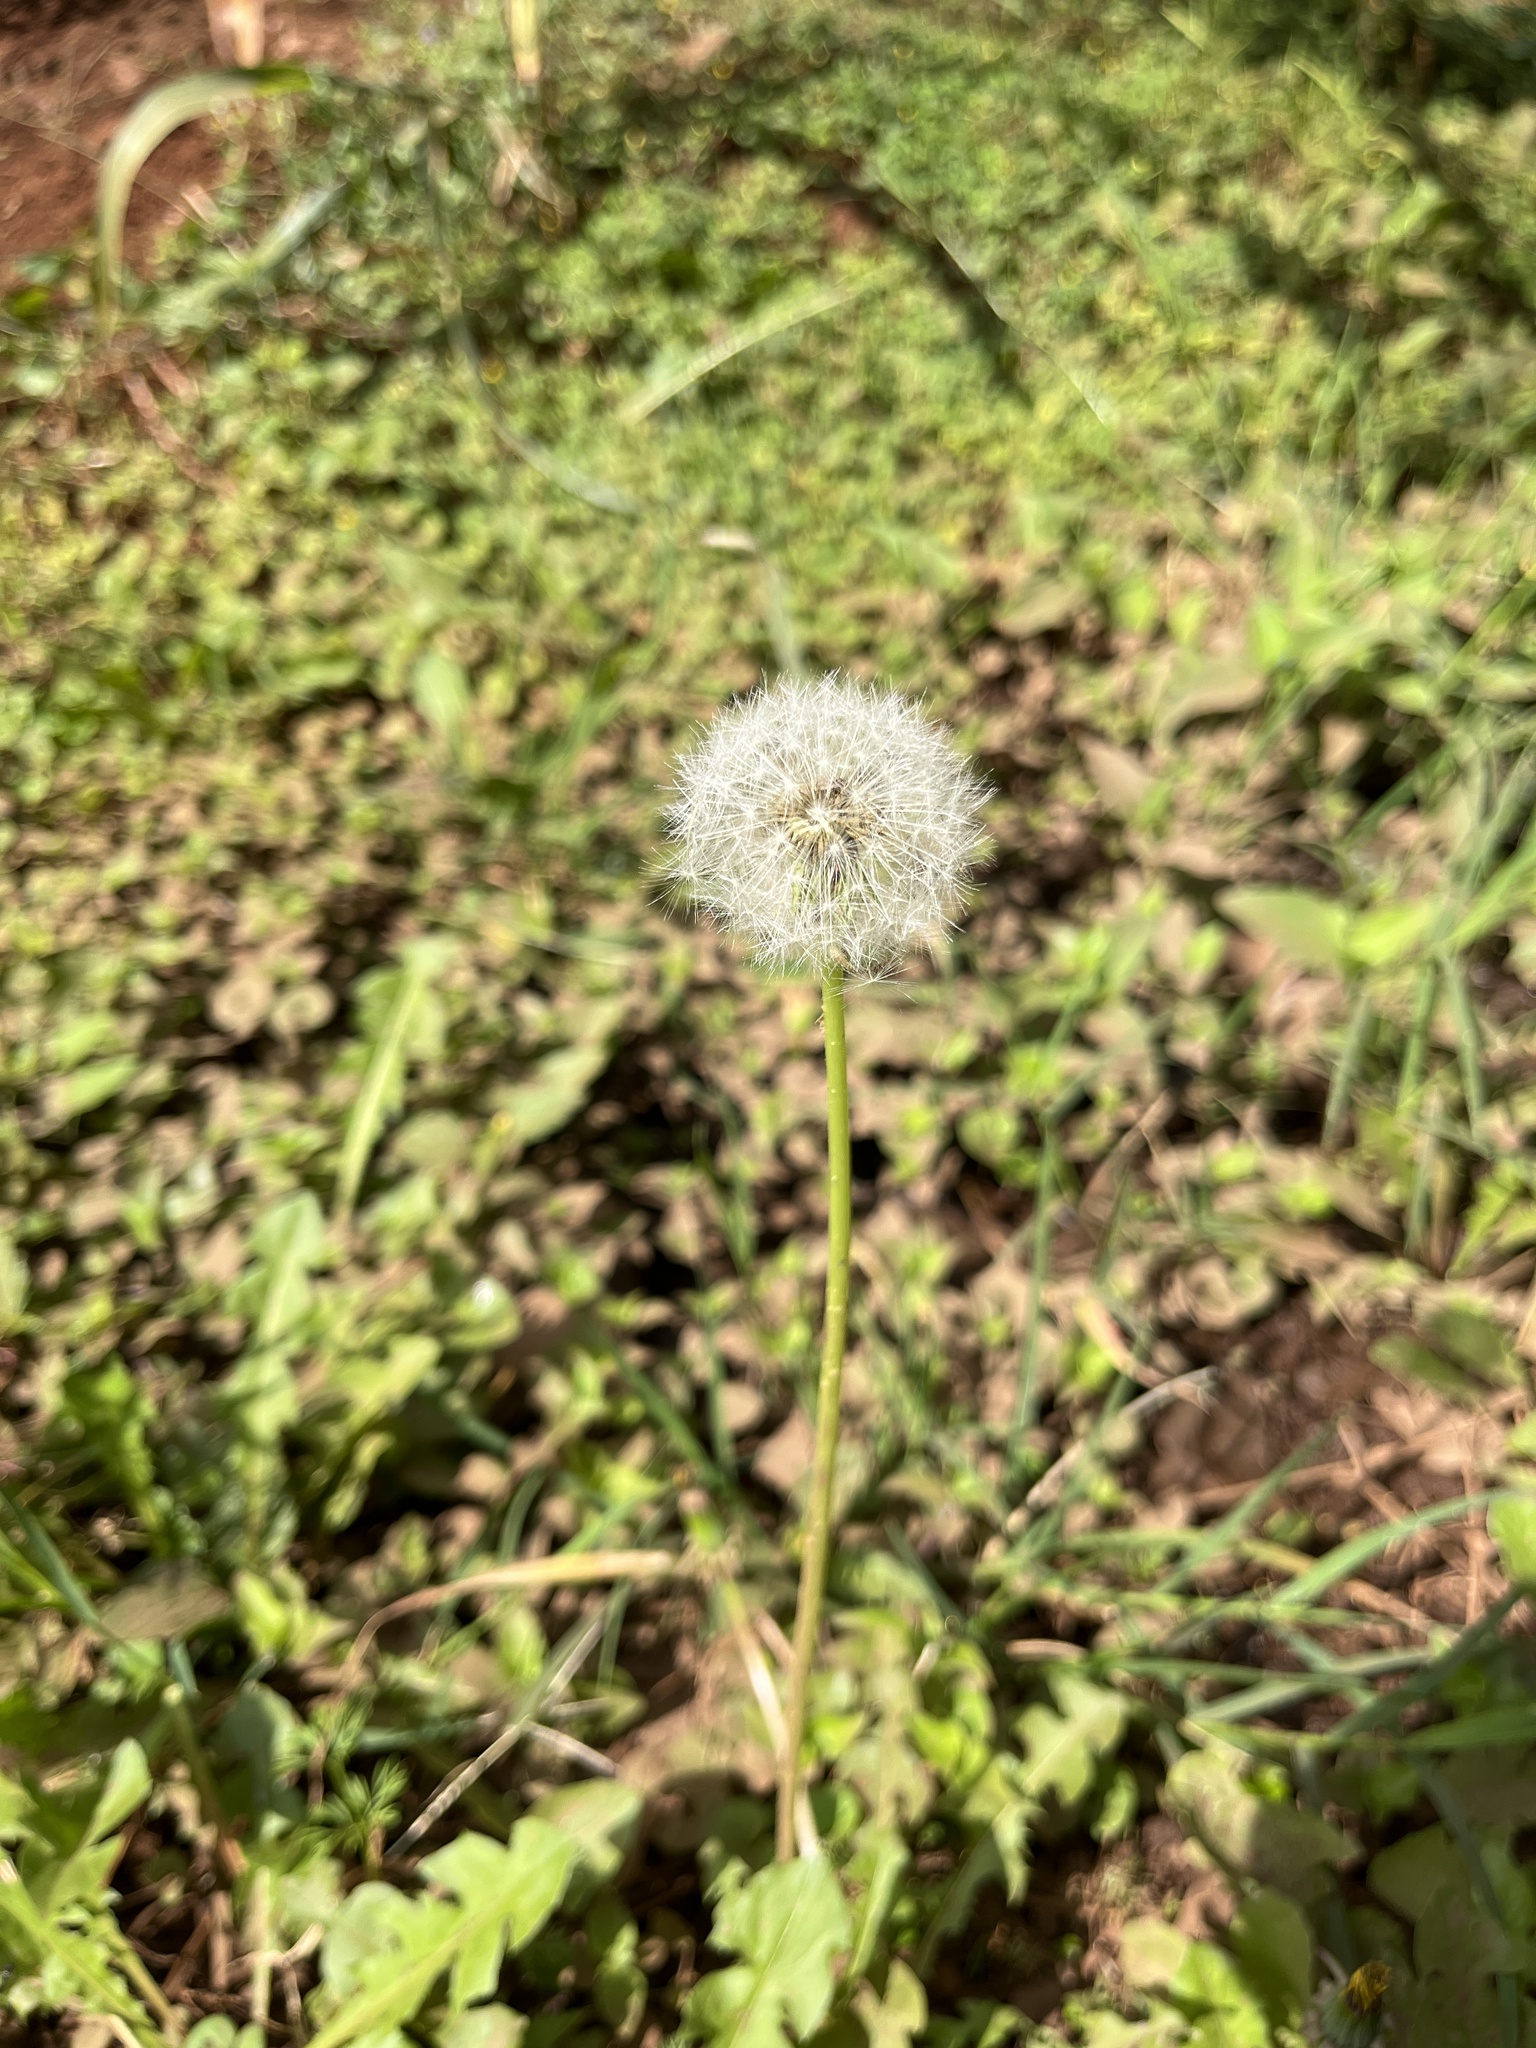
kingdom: Plantae
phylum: Tracheophyta
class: Magnoliopsida
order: Asterales
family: Asteraceae
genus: Taraxacum
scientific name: Taraxacum officinale
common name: Common dandelion
